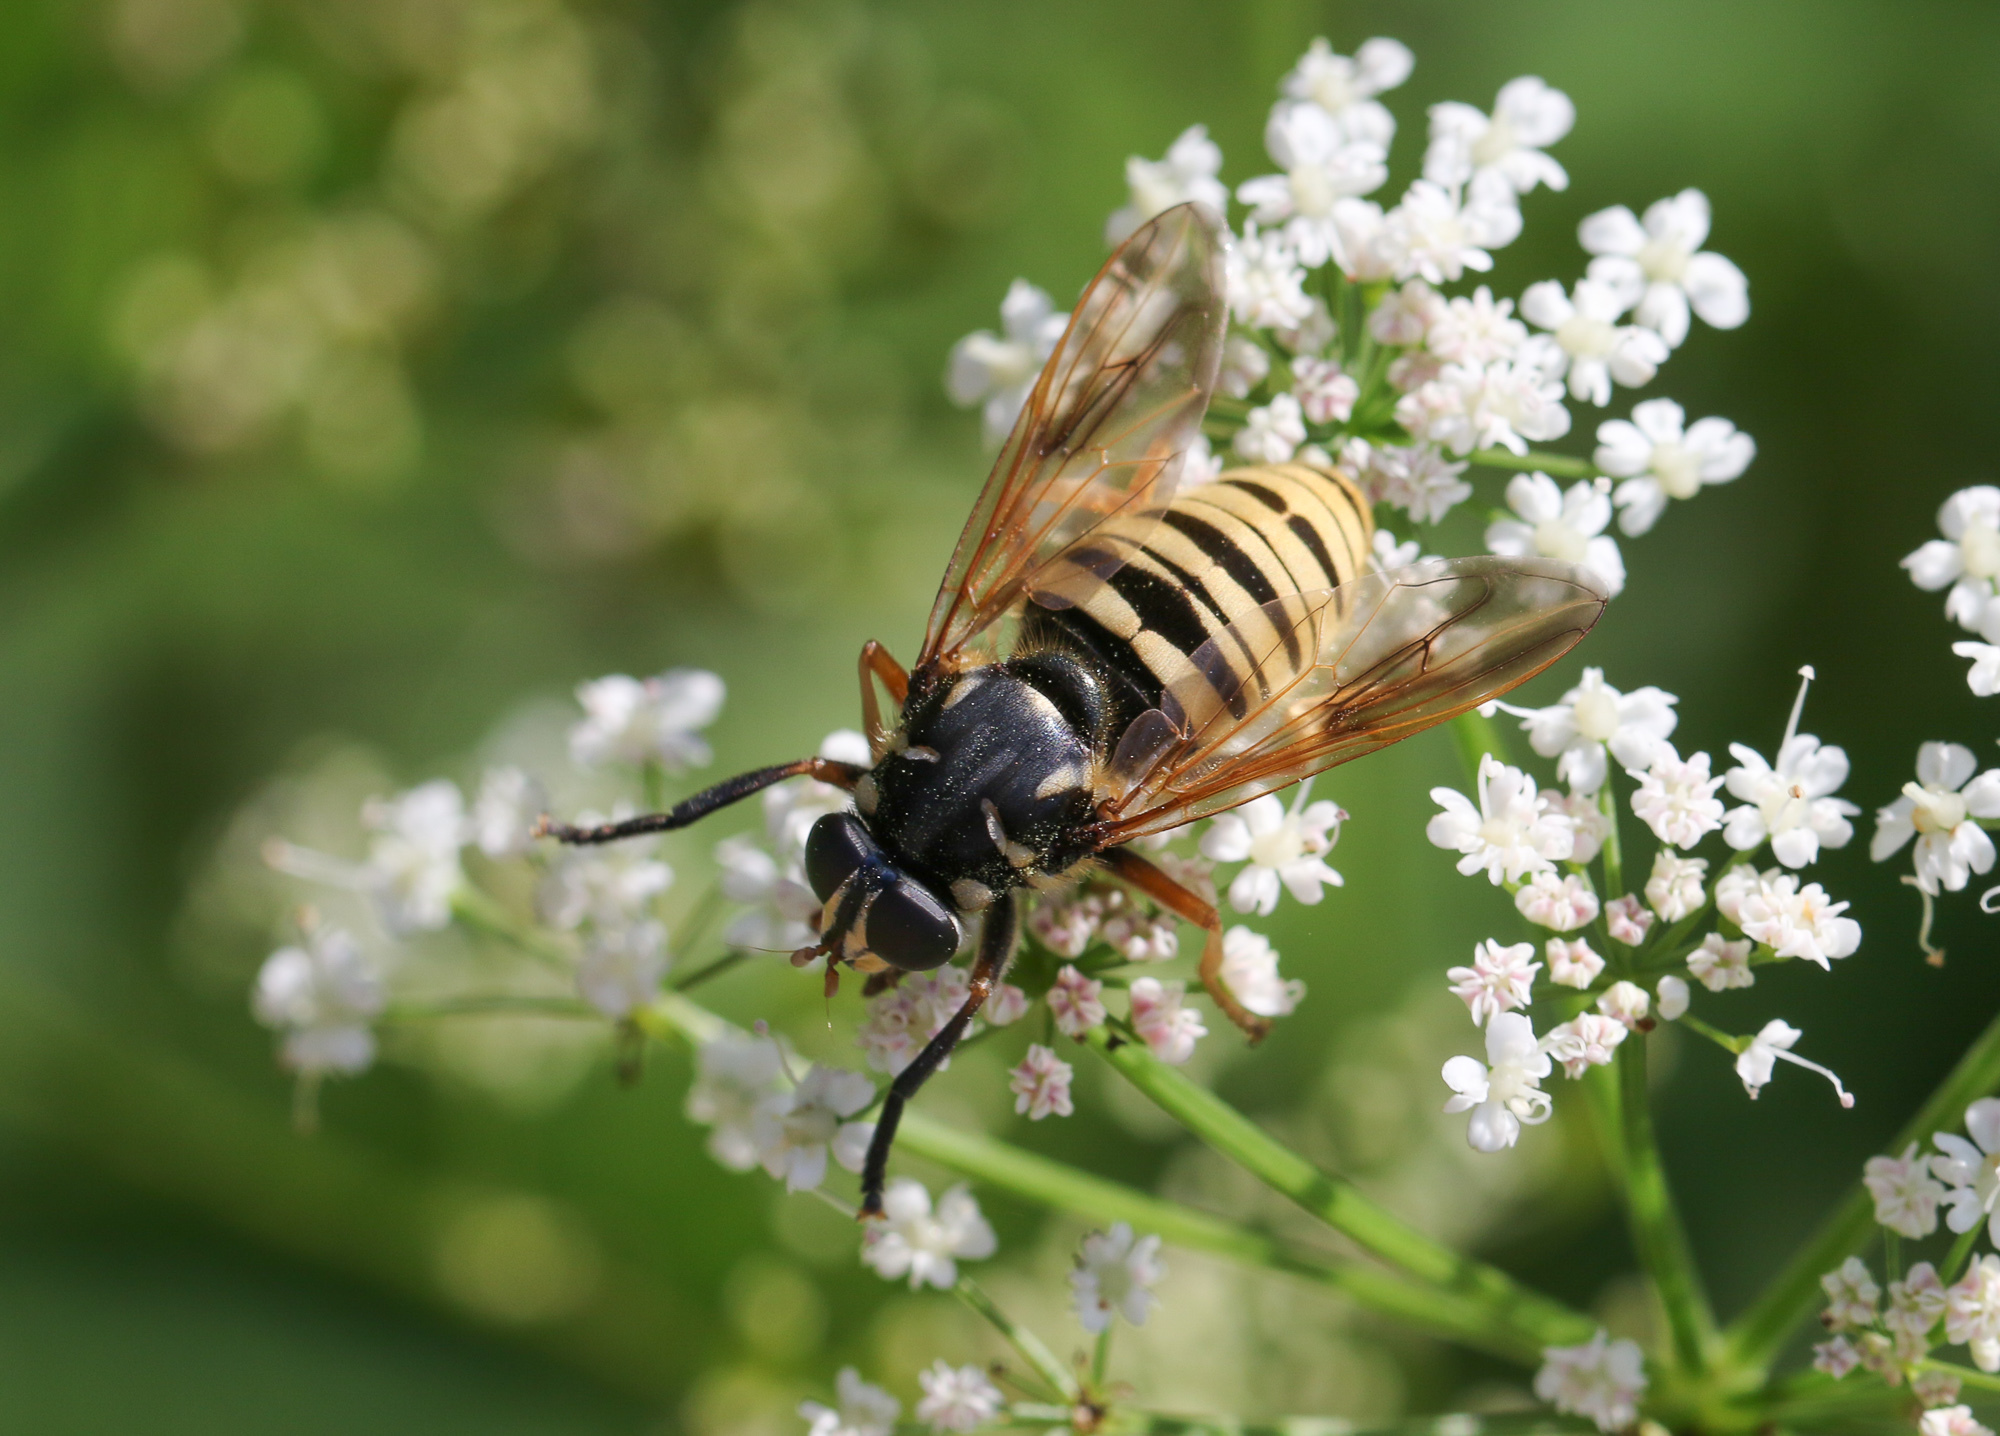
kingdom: Animalia
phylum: Arthropoda
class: Insecta
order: Diptera
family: Syrphidae
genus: Temnostoma
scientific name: Temnostoma vespiforme
